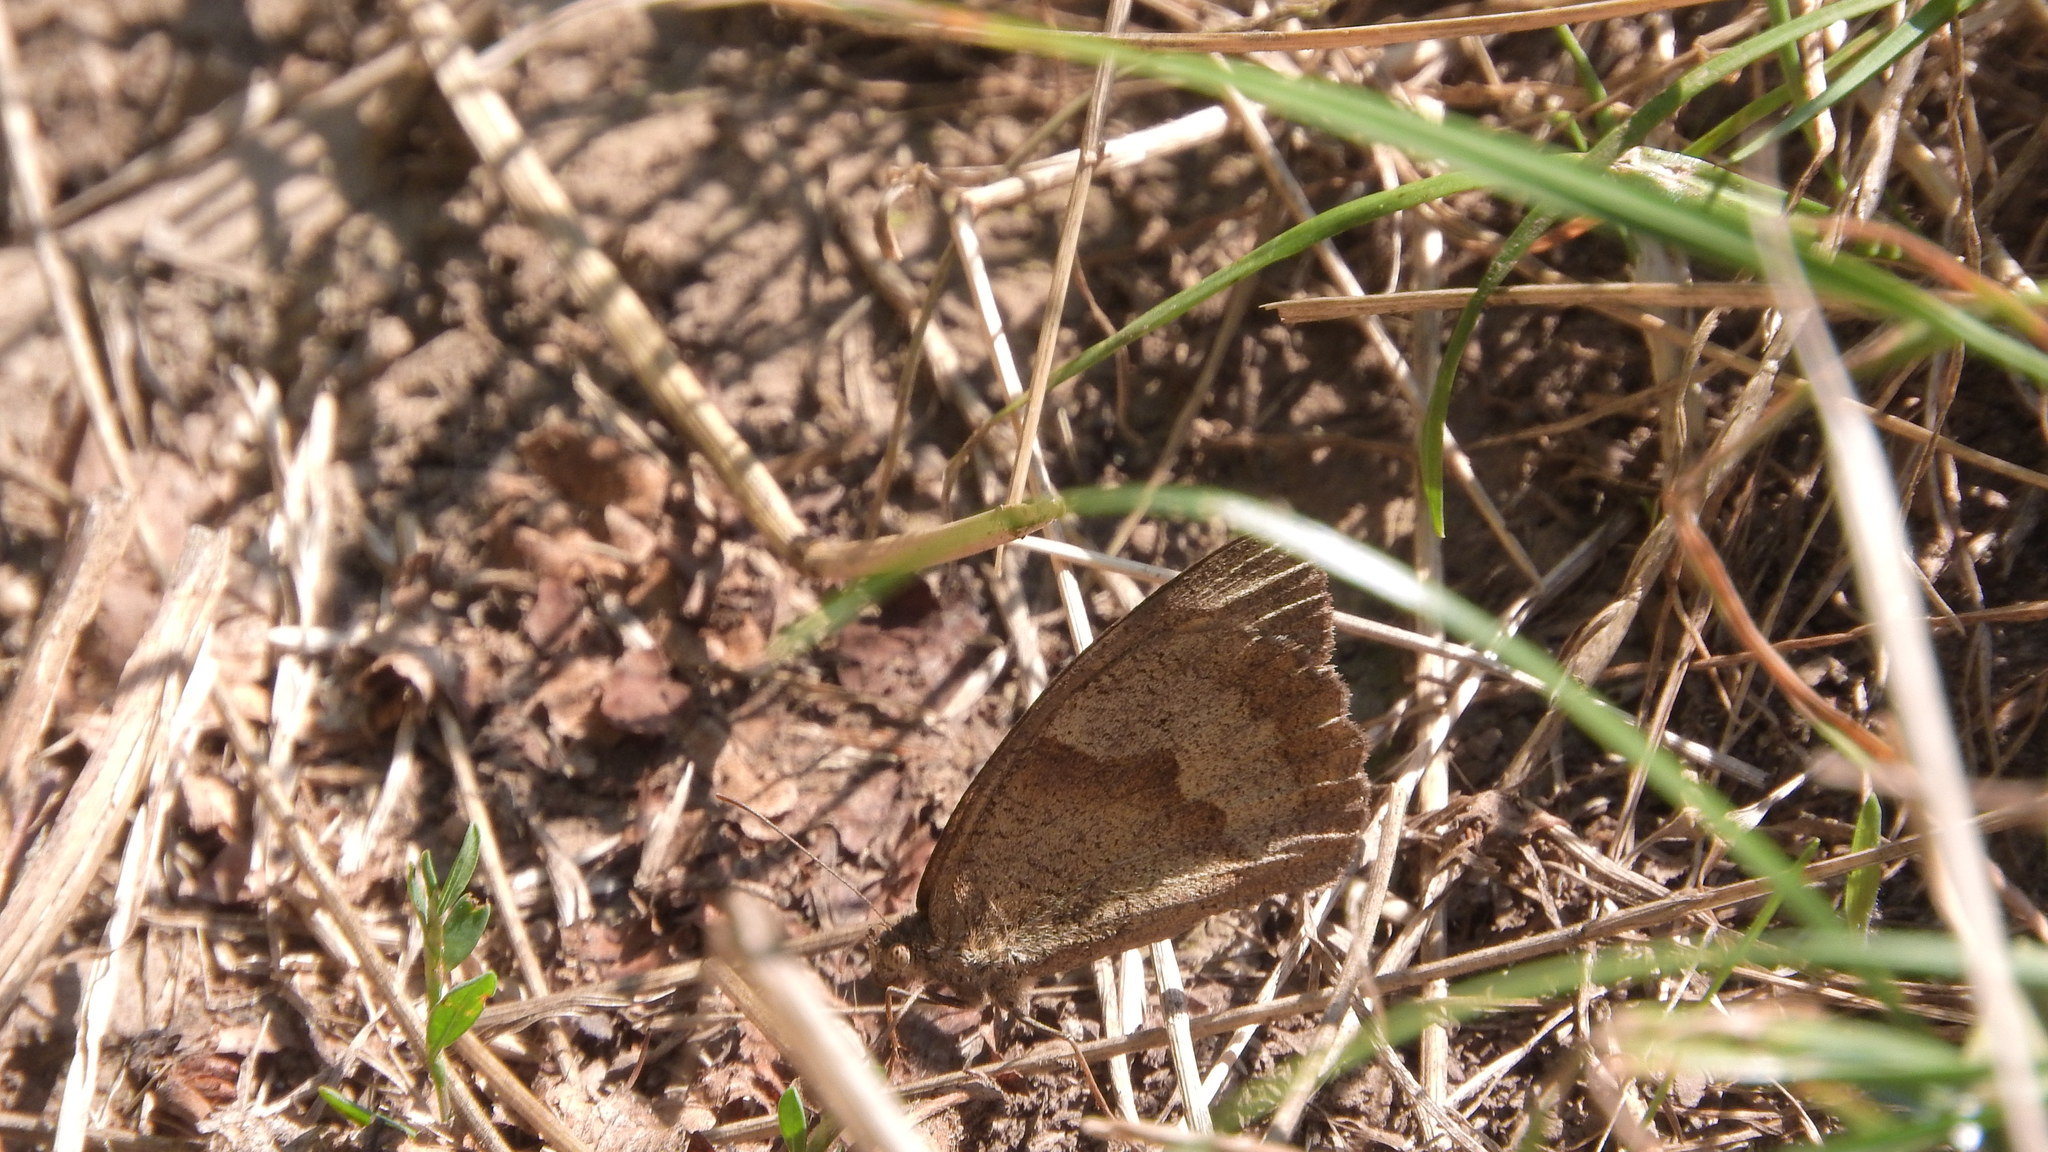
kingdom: Animalia
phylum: Arthropoda
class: Insecta
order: Lepidoptera
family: Nymphalidae
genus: Maniola
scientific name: Maniola jurtina
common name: Meadow brown
